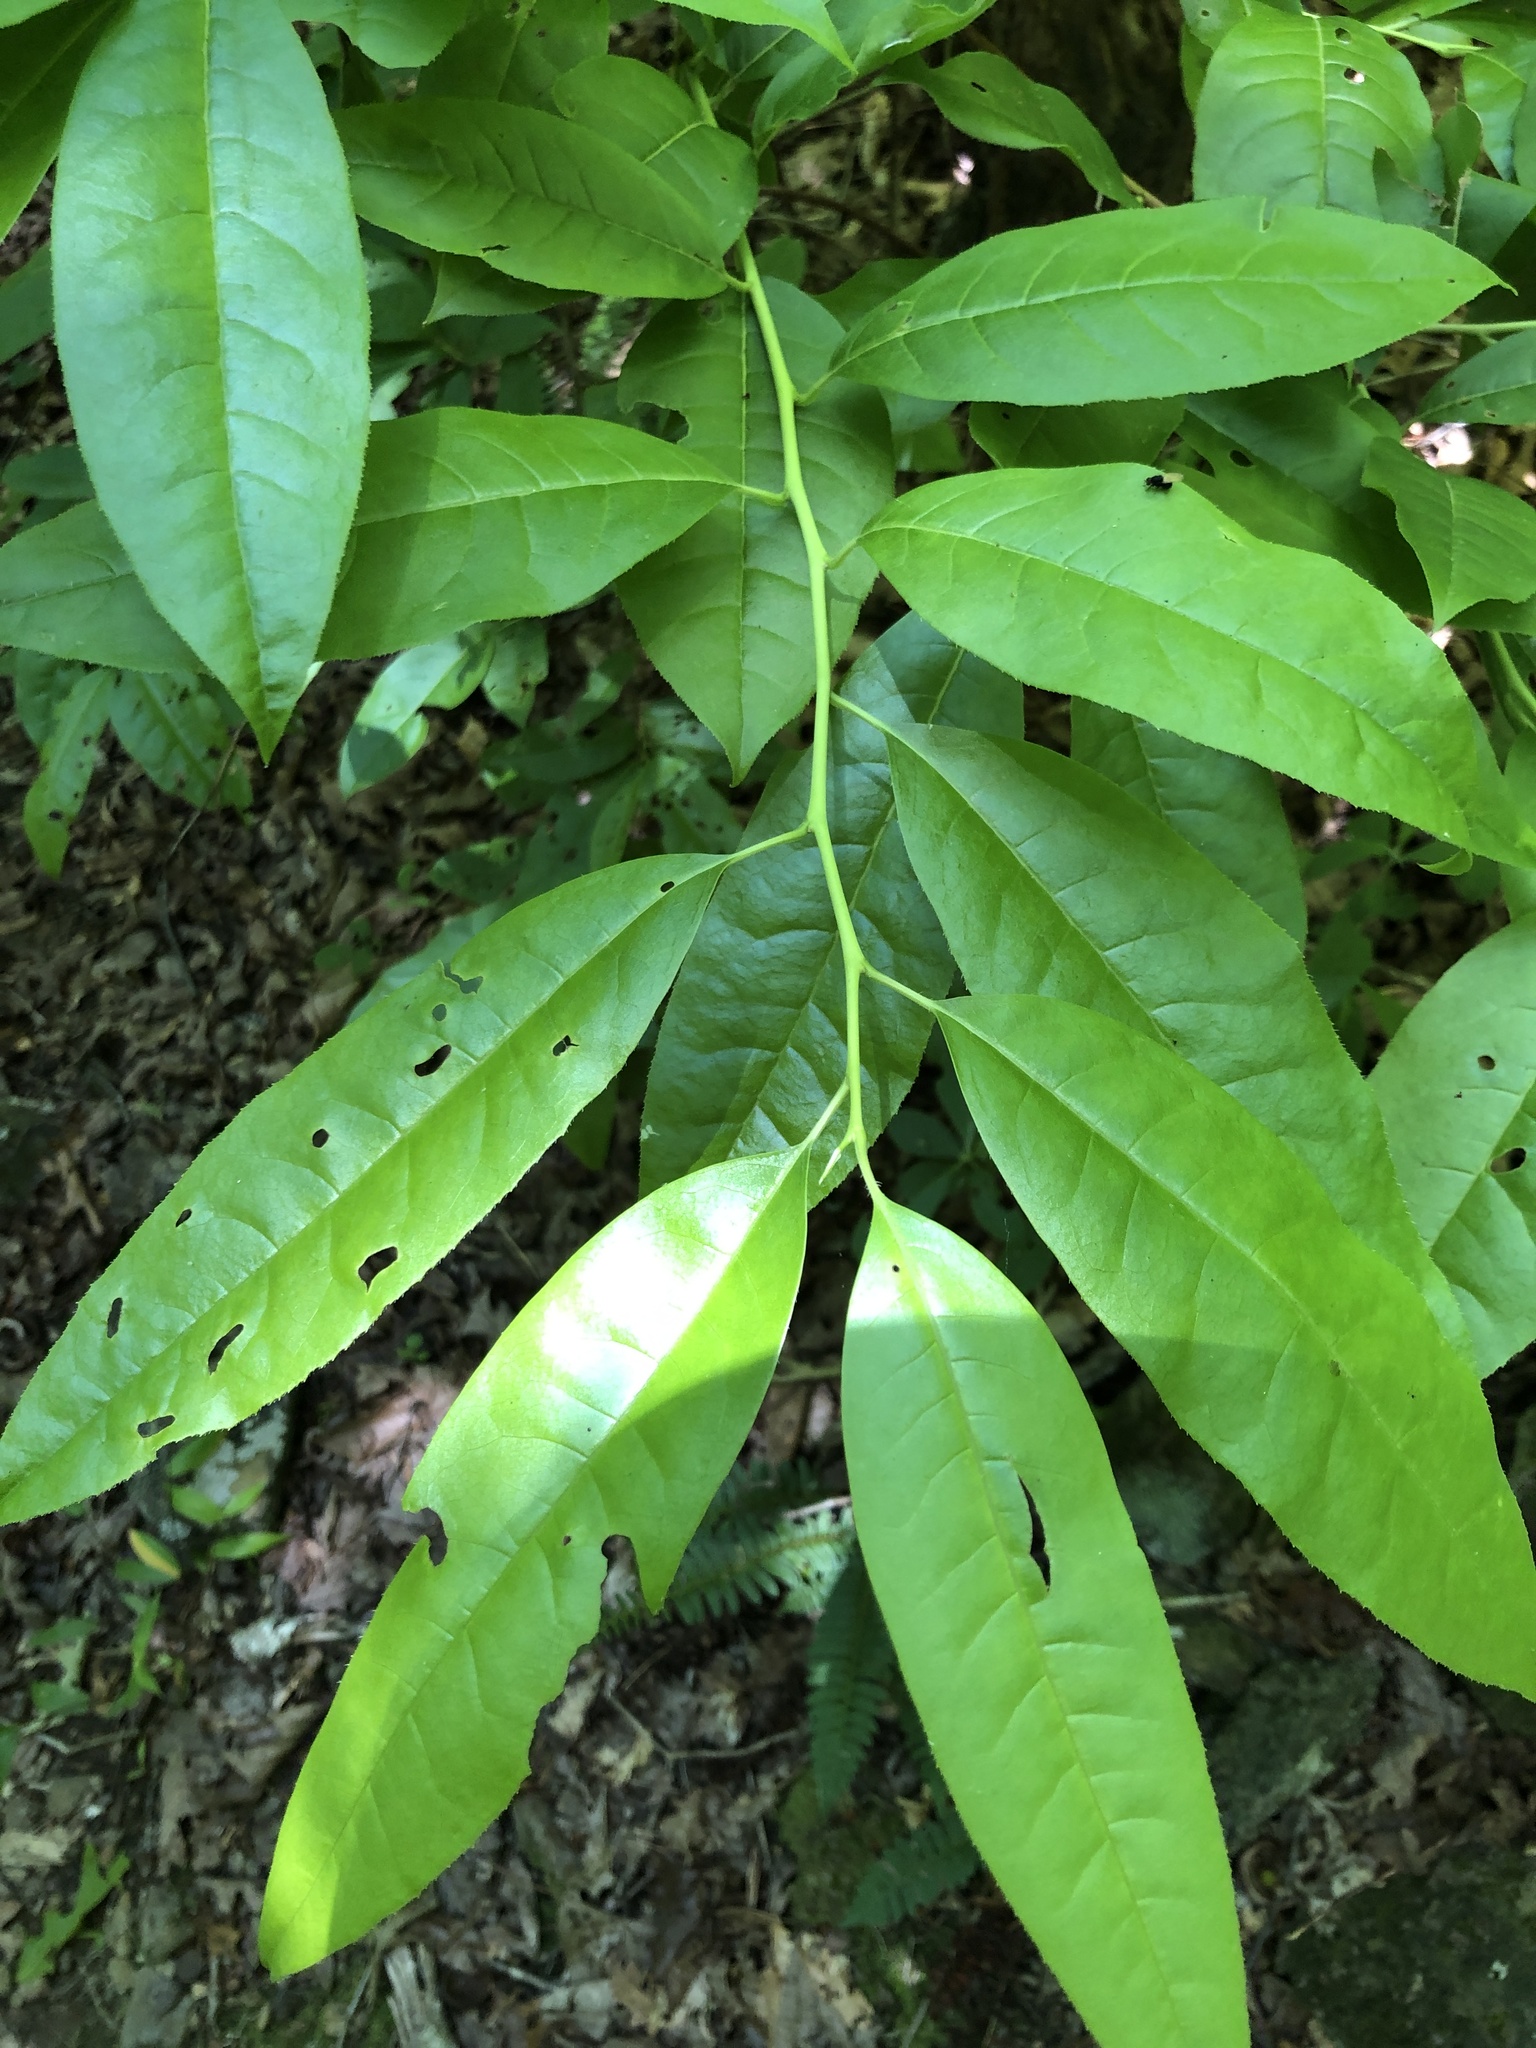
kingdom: Plantae
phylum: Tracheophyta
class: Magnoliopsida
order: Ericales
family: Ericaceae
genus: Oxydendrum
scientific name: Oxydendrum arboreum
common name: Sourwood
